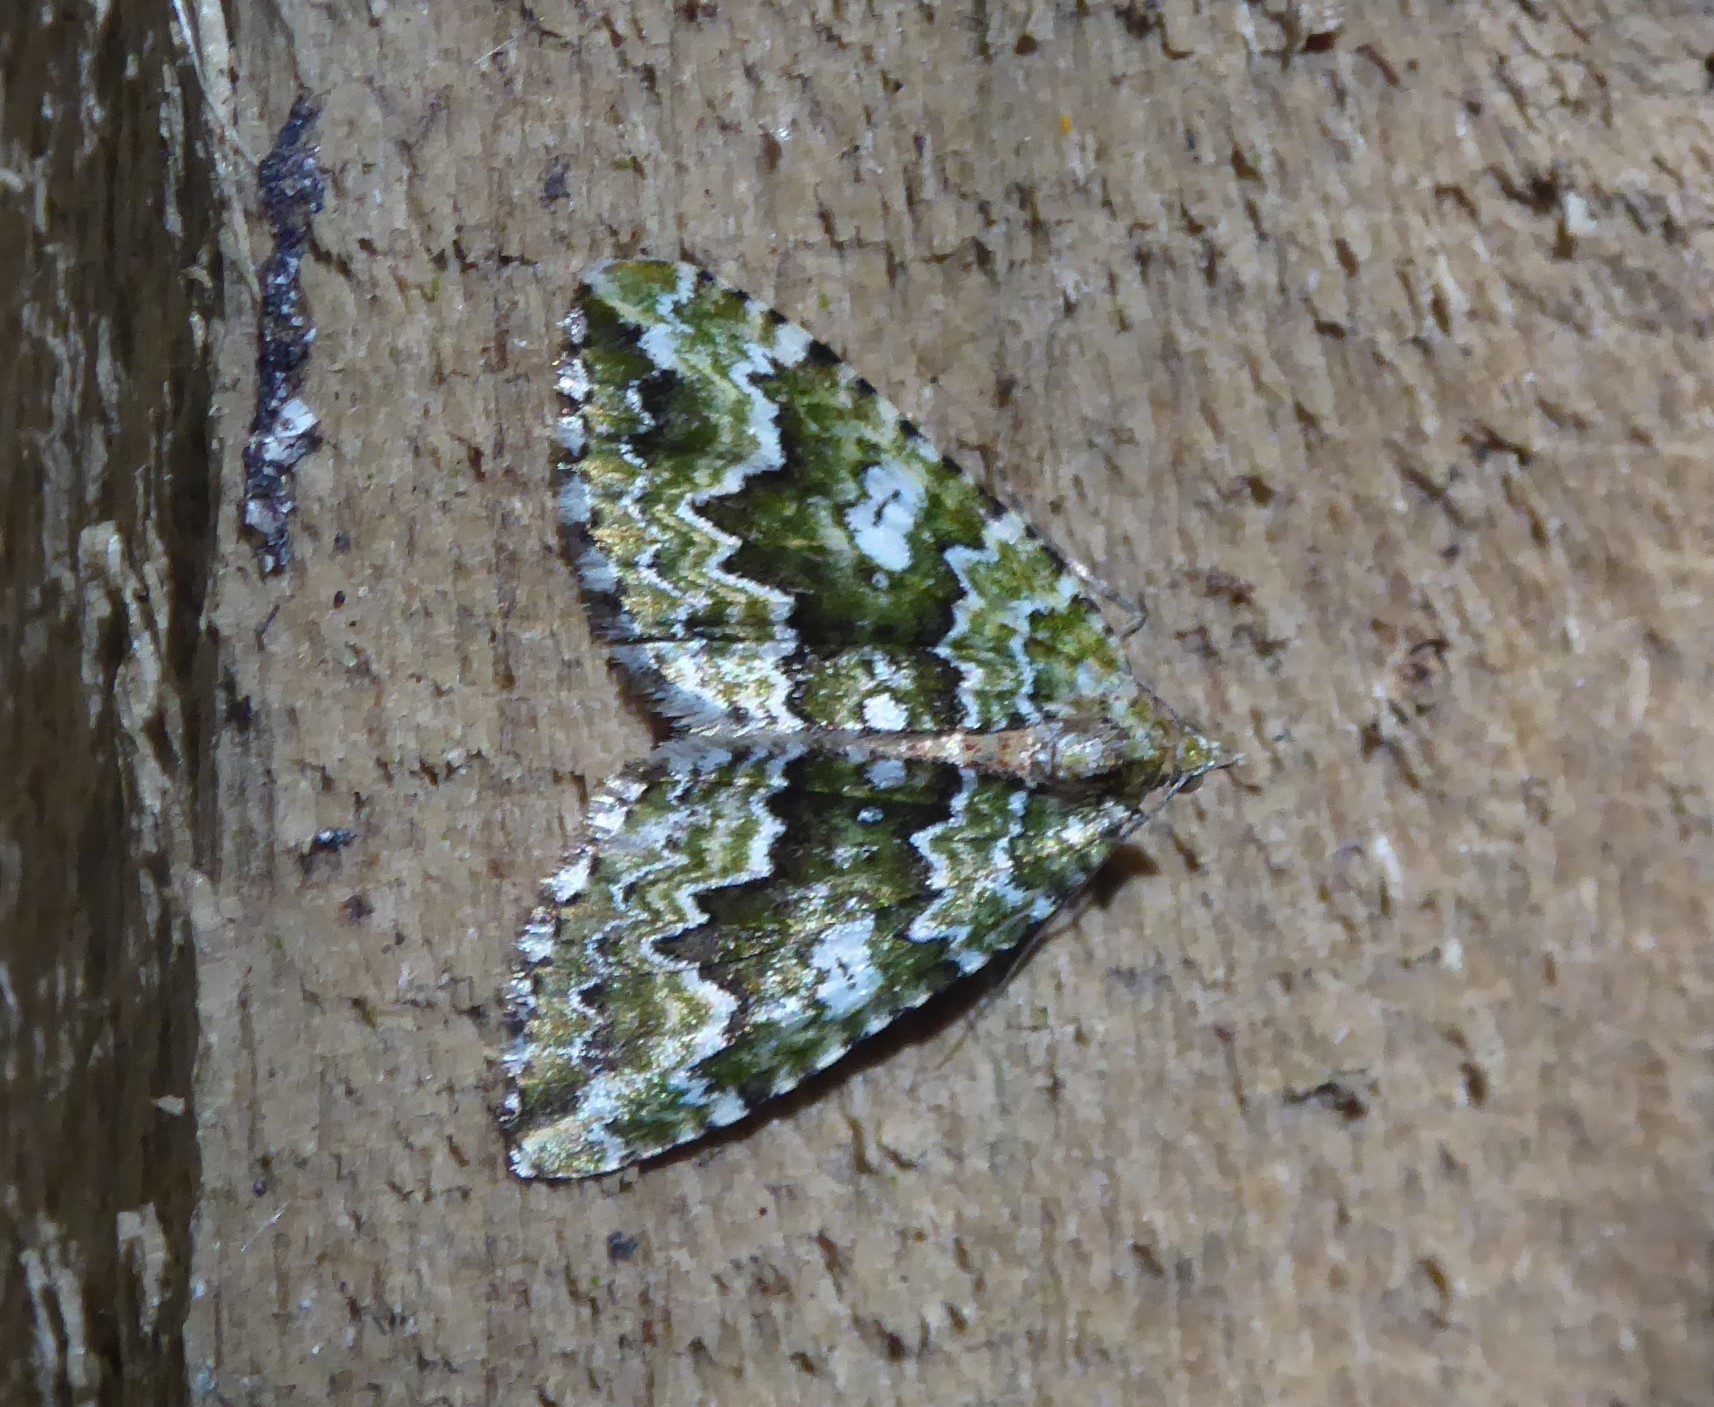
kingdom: Animalia
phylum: Arthropoda
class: Insecta
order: Lepidoptera
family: Geometridae
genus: Asaphodes
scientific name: Asaphodes beata
